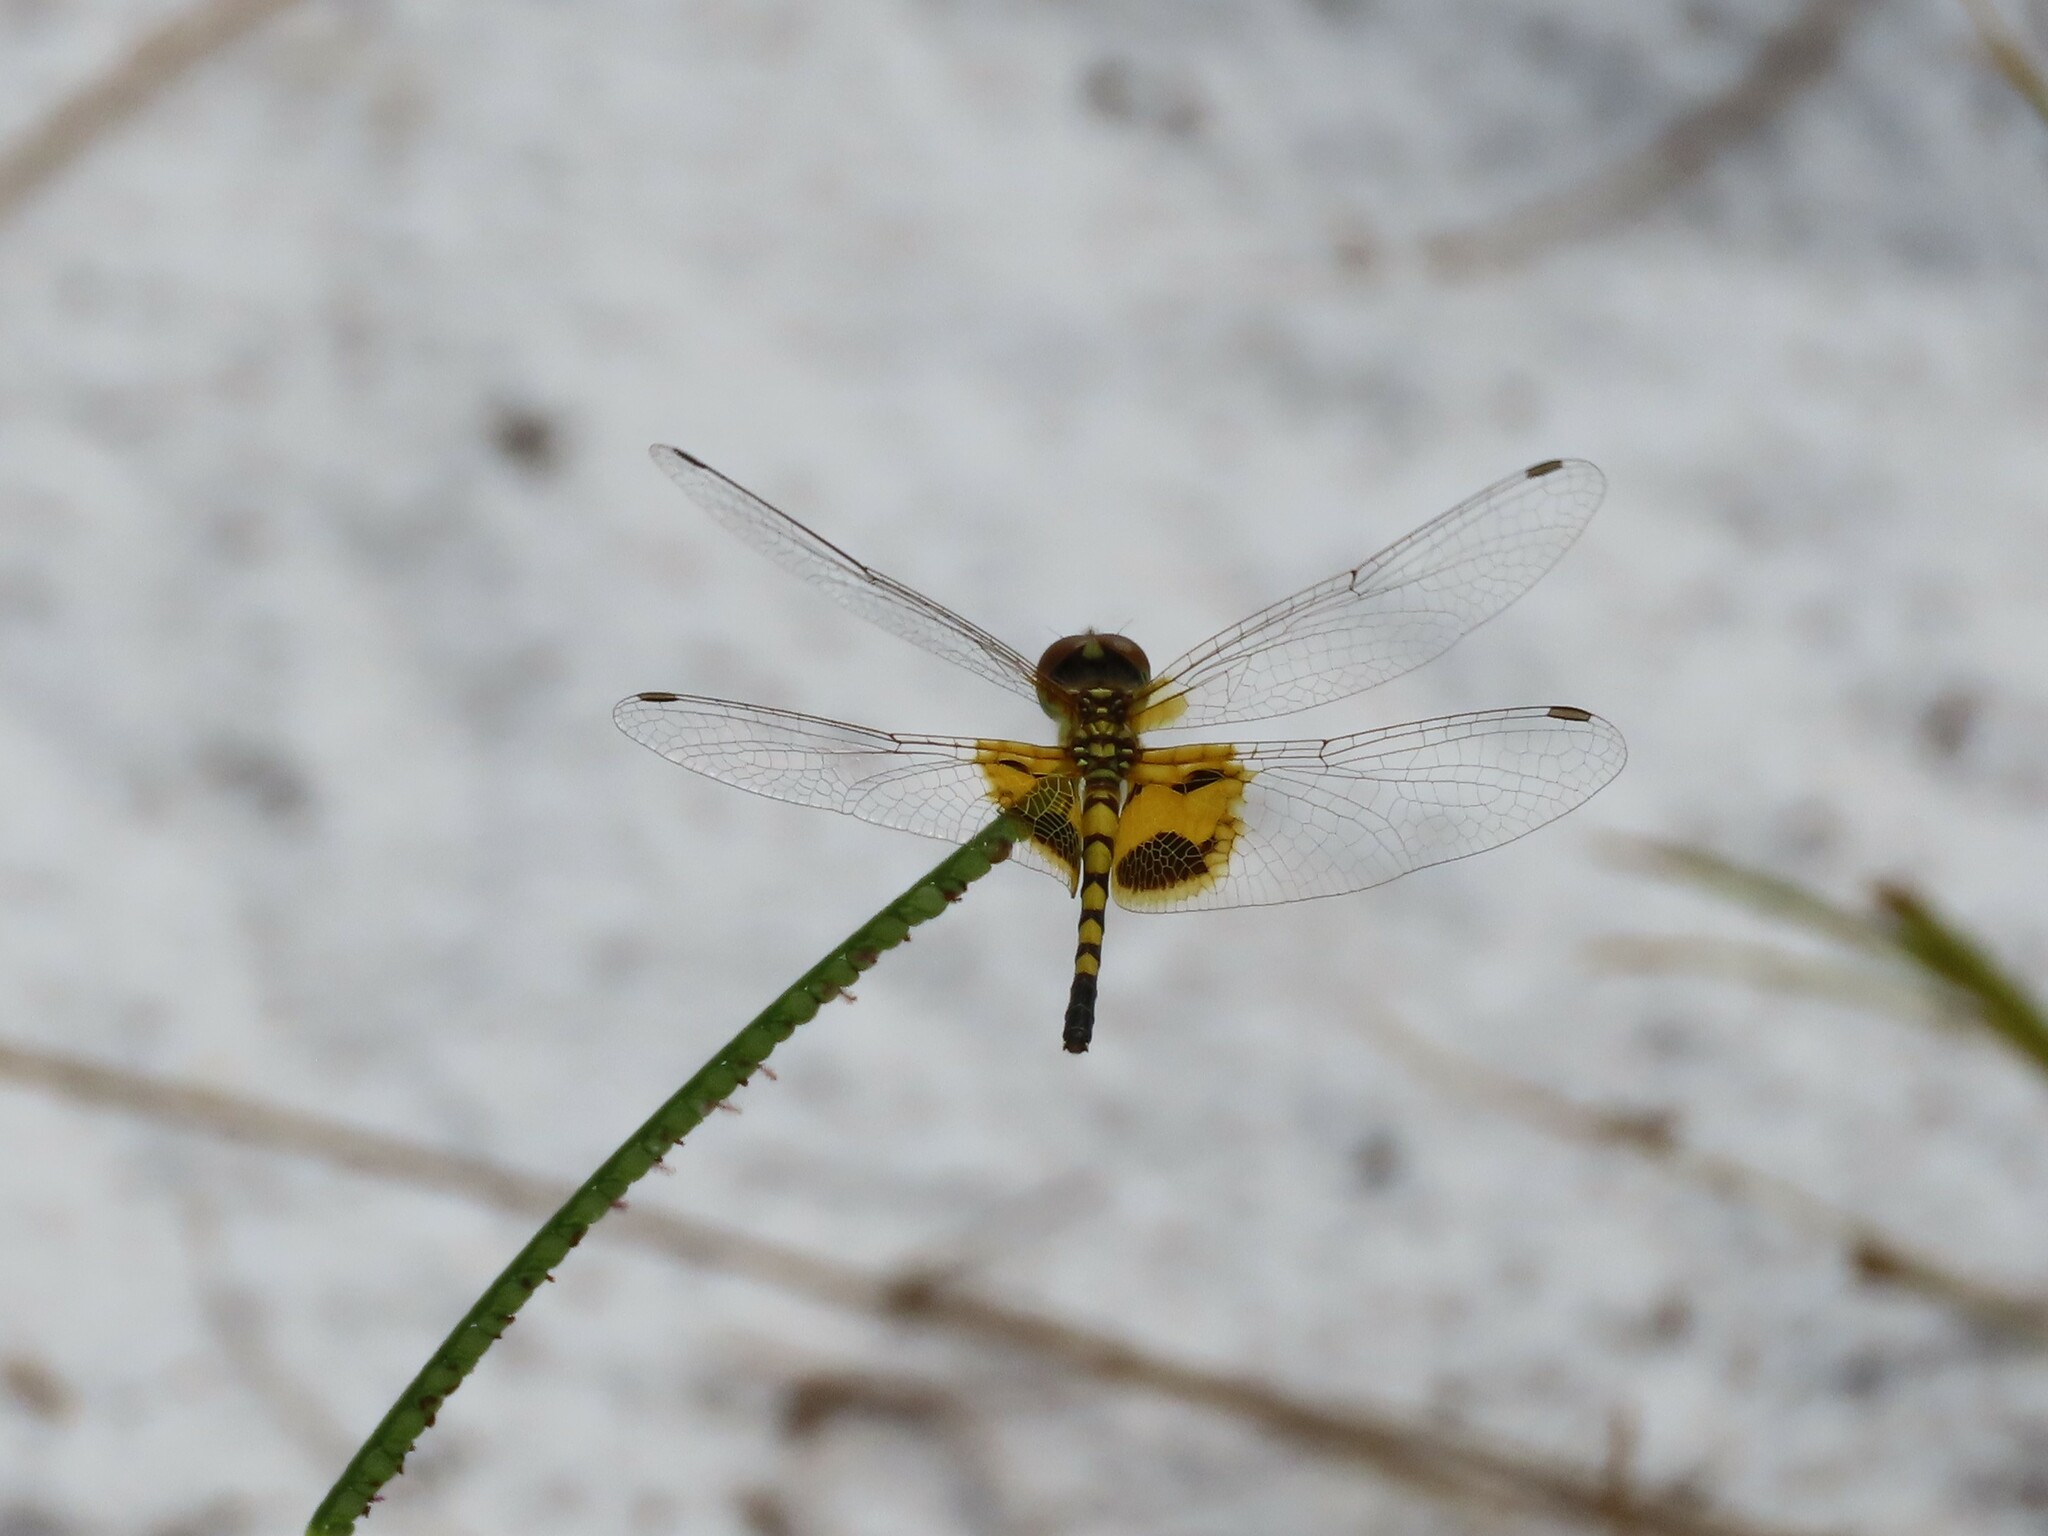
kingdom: Animalia
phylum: Arthropoda
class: Insecta
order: Odonata
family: Libellulidae
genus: Celithemis
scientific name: Celithemis amanda
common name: Amanda's pennant
